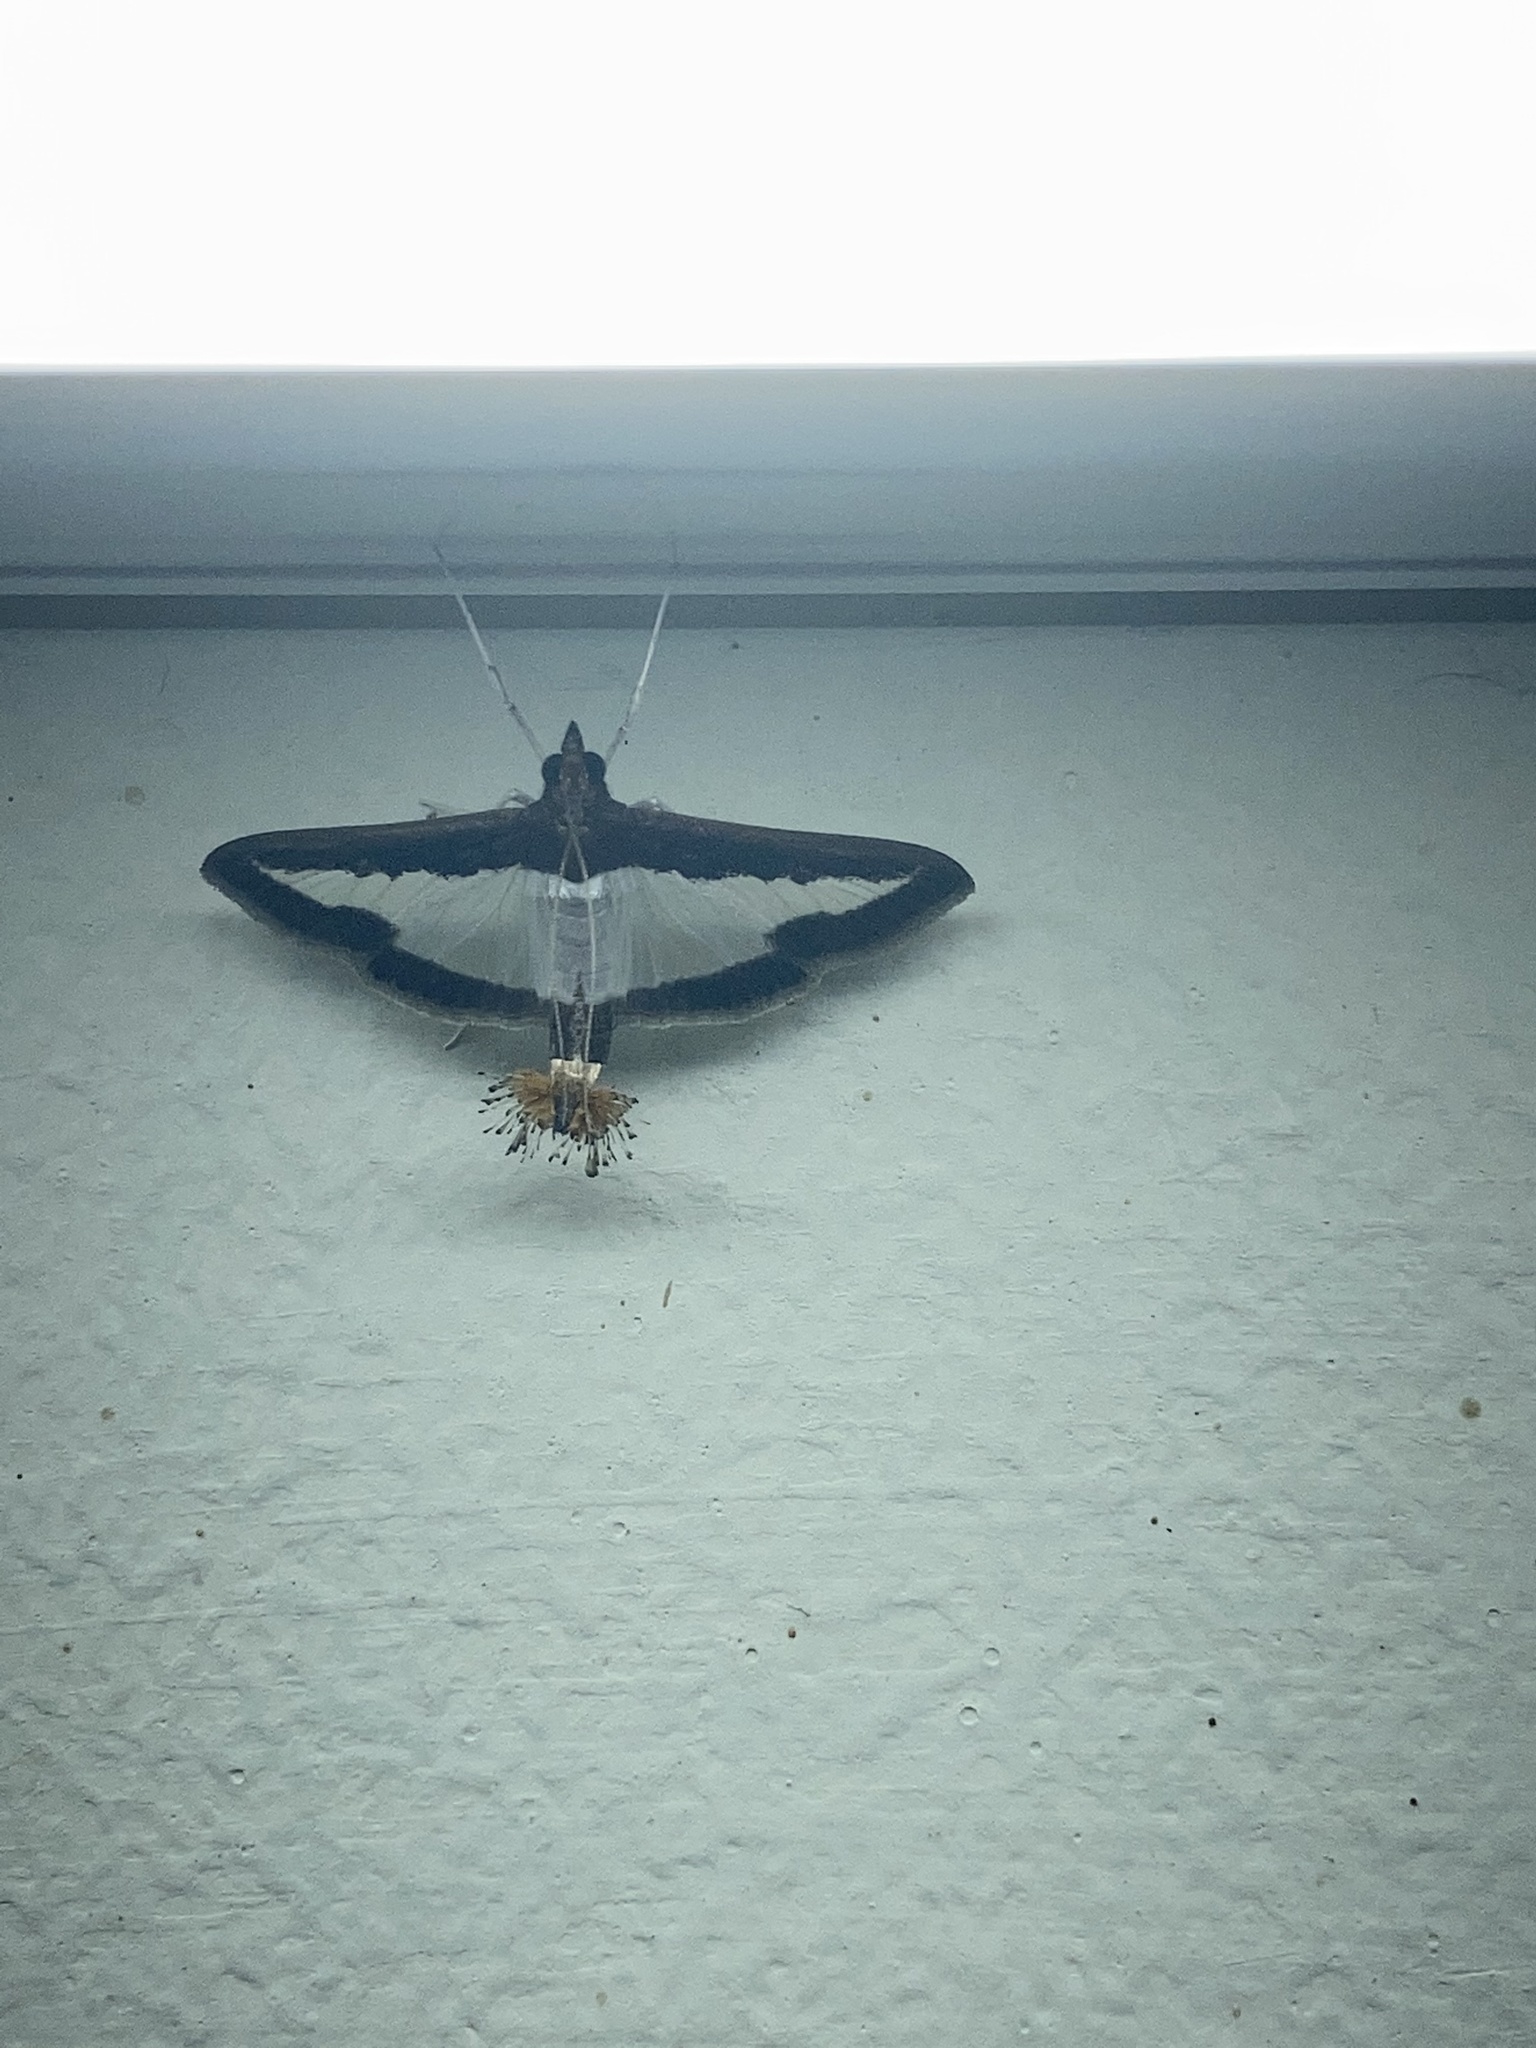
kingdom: Animalia
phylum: Arthropoda
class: Insecta
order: Lepidoptera
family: Crambidae
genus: Diaphania
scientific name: Diaphania indica
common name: Cucumber moth
